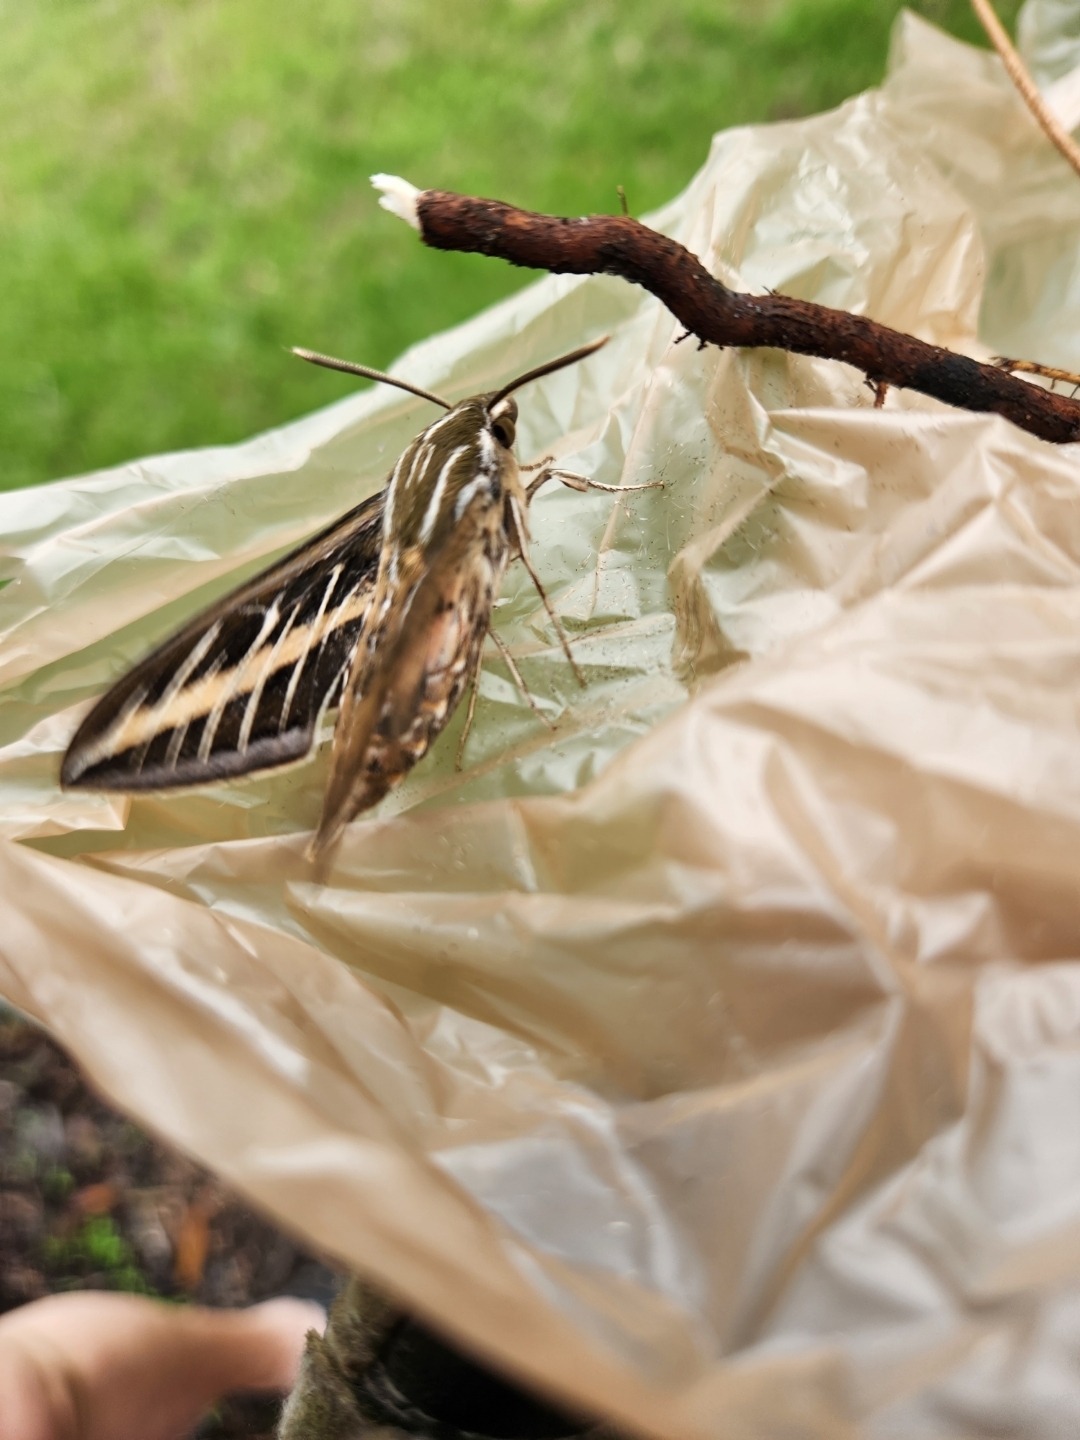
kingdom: Animalia
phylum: Arthropoda
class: Insecta
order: Lepidoptera
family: Sphingidae
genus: Hyles
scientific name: Hyles lineata
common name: White-lined sphinx
